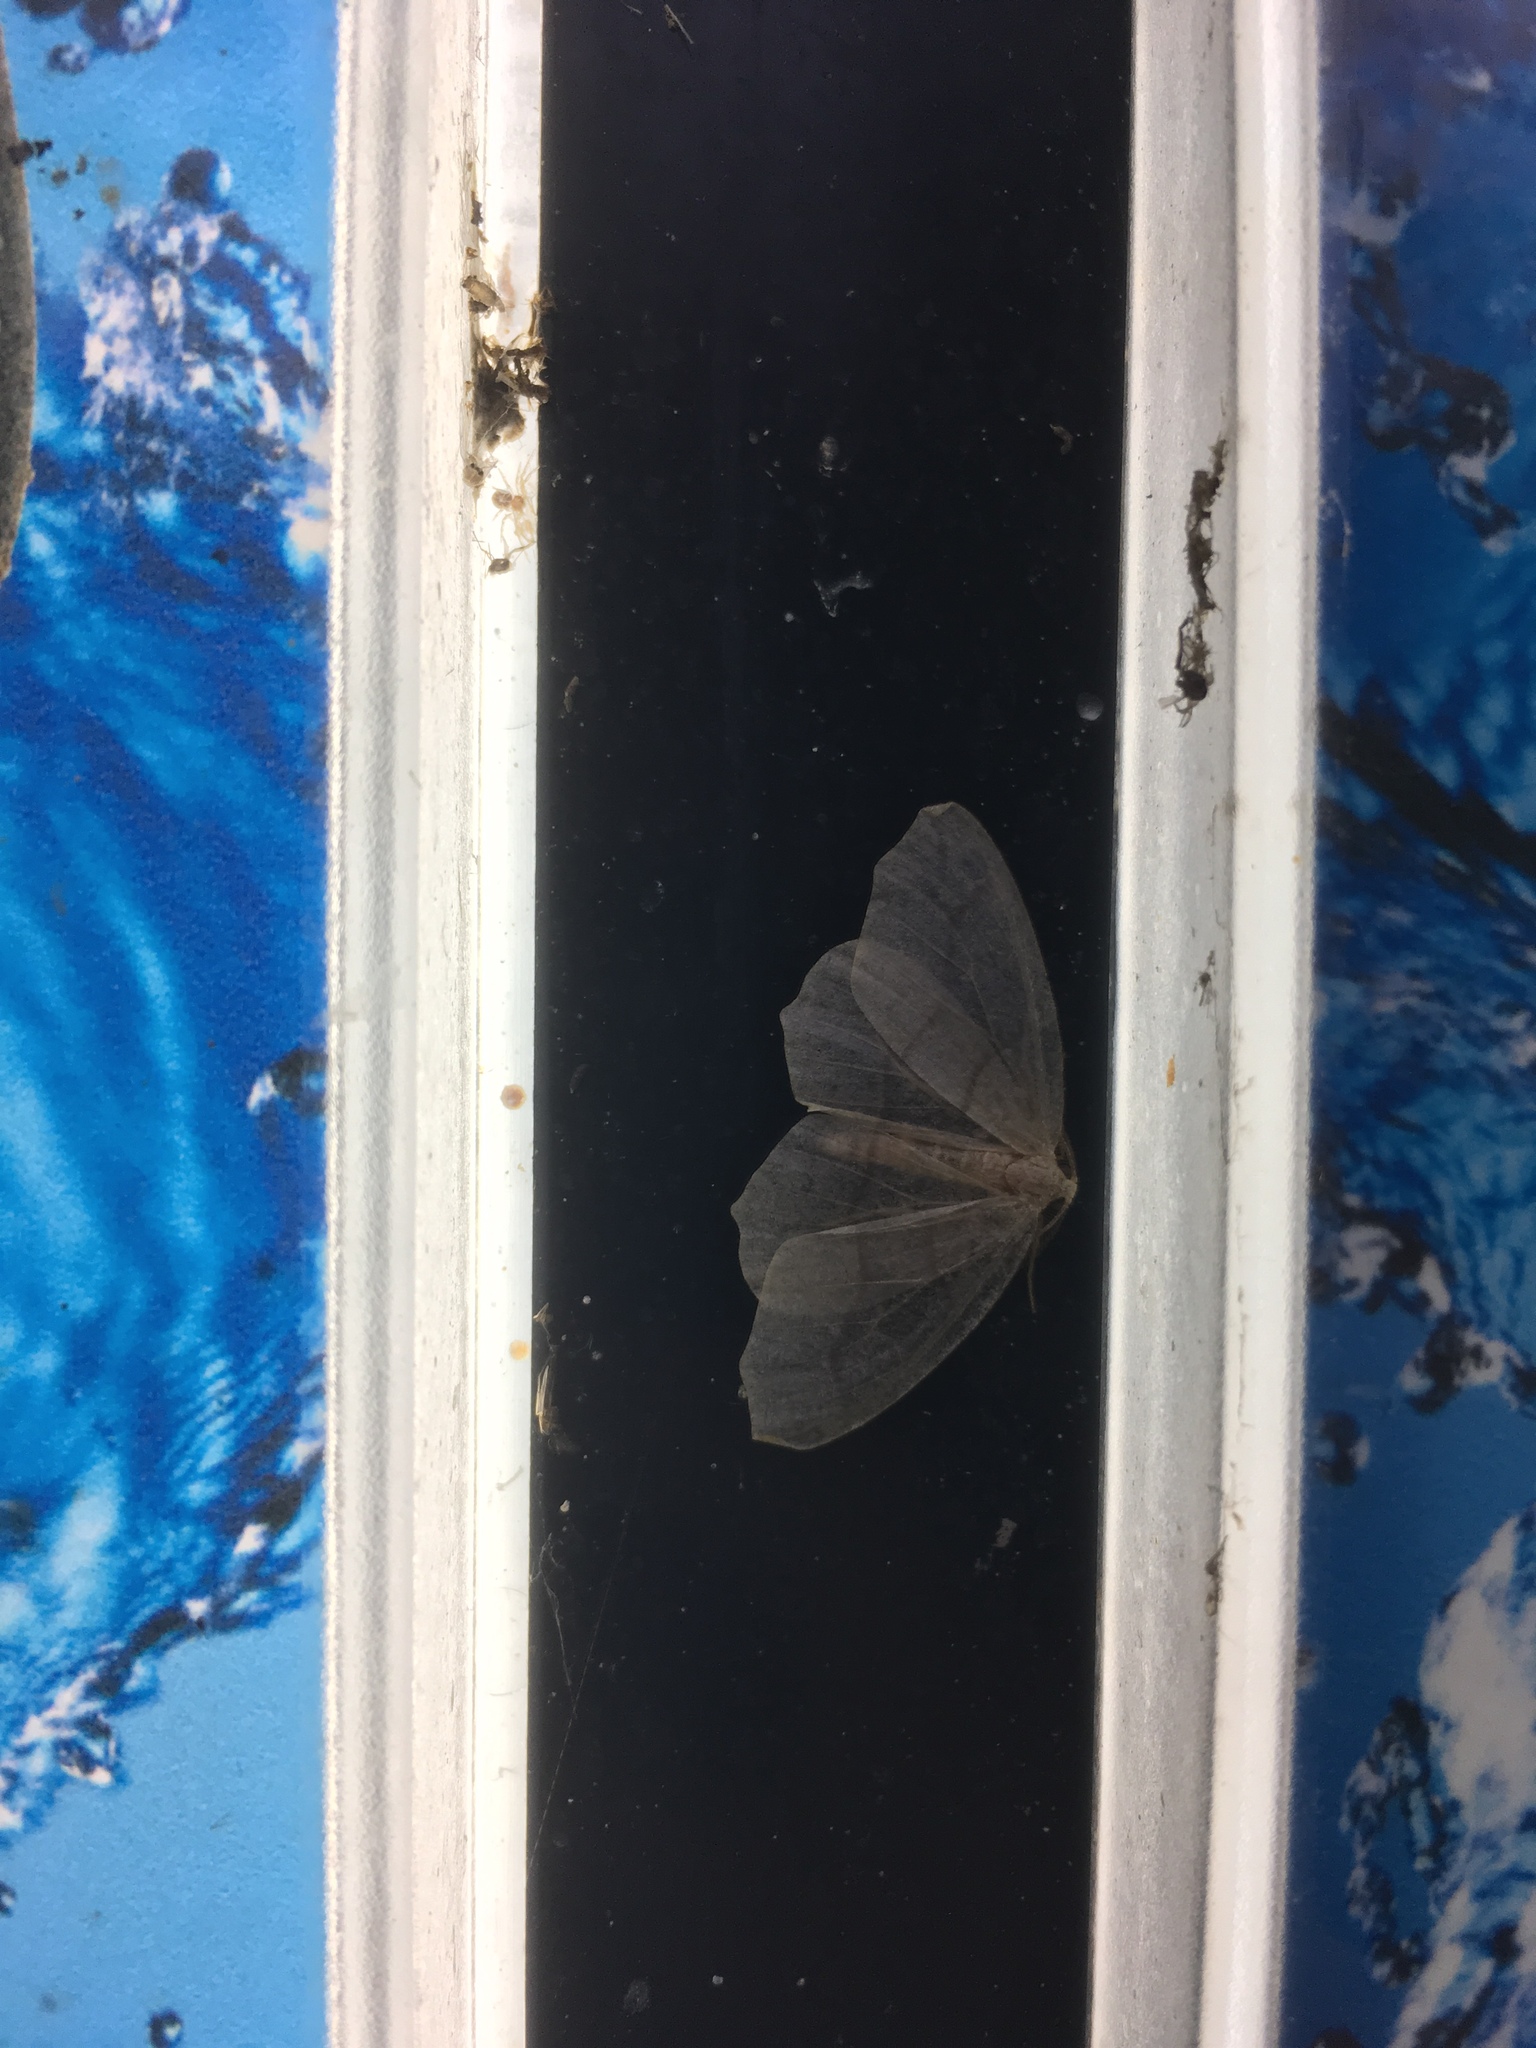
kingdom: Animalia
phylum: Arthropoda
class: Insecta
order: Lepidoptera
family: Geometridae
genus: Lambdina
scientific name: Lambdina fiscellaria
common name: Hemlock looper
